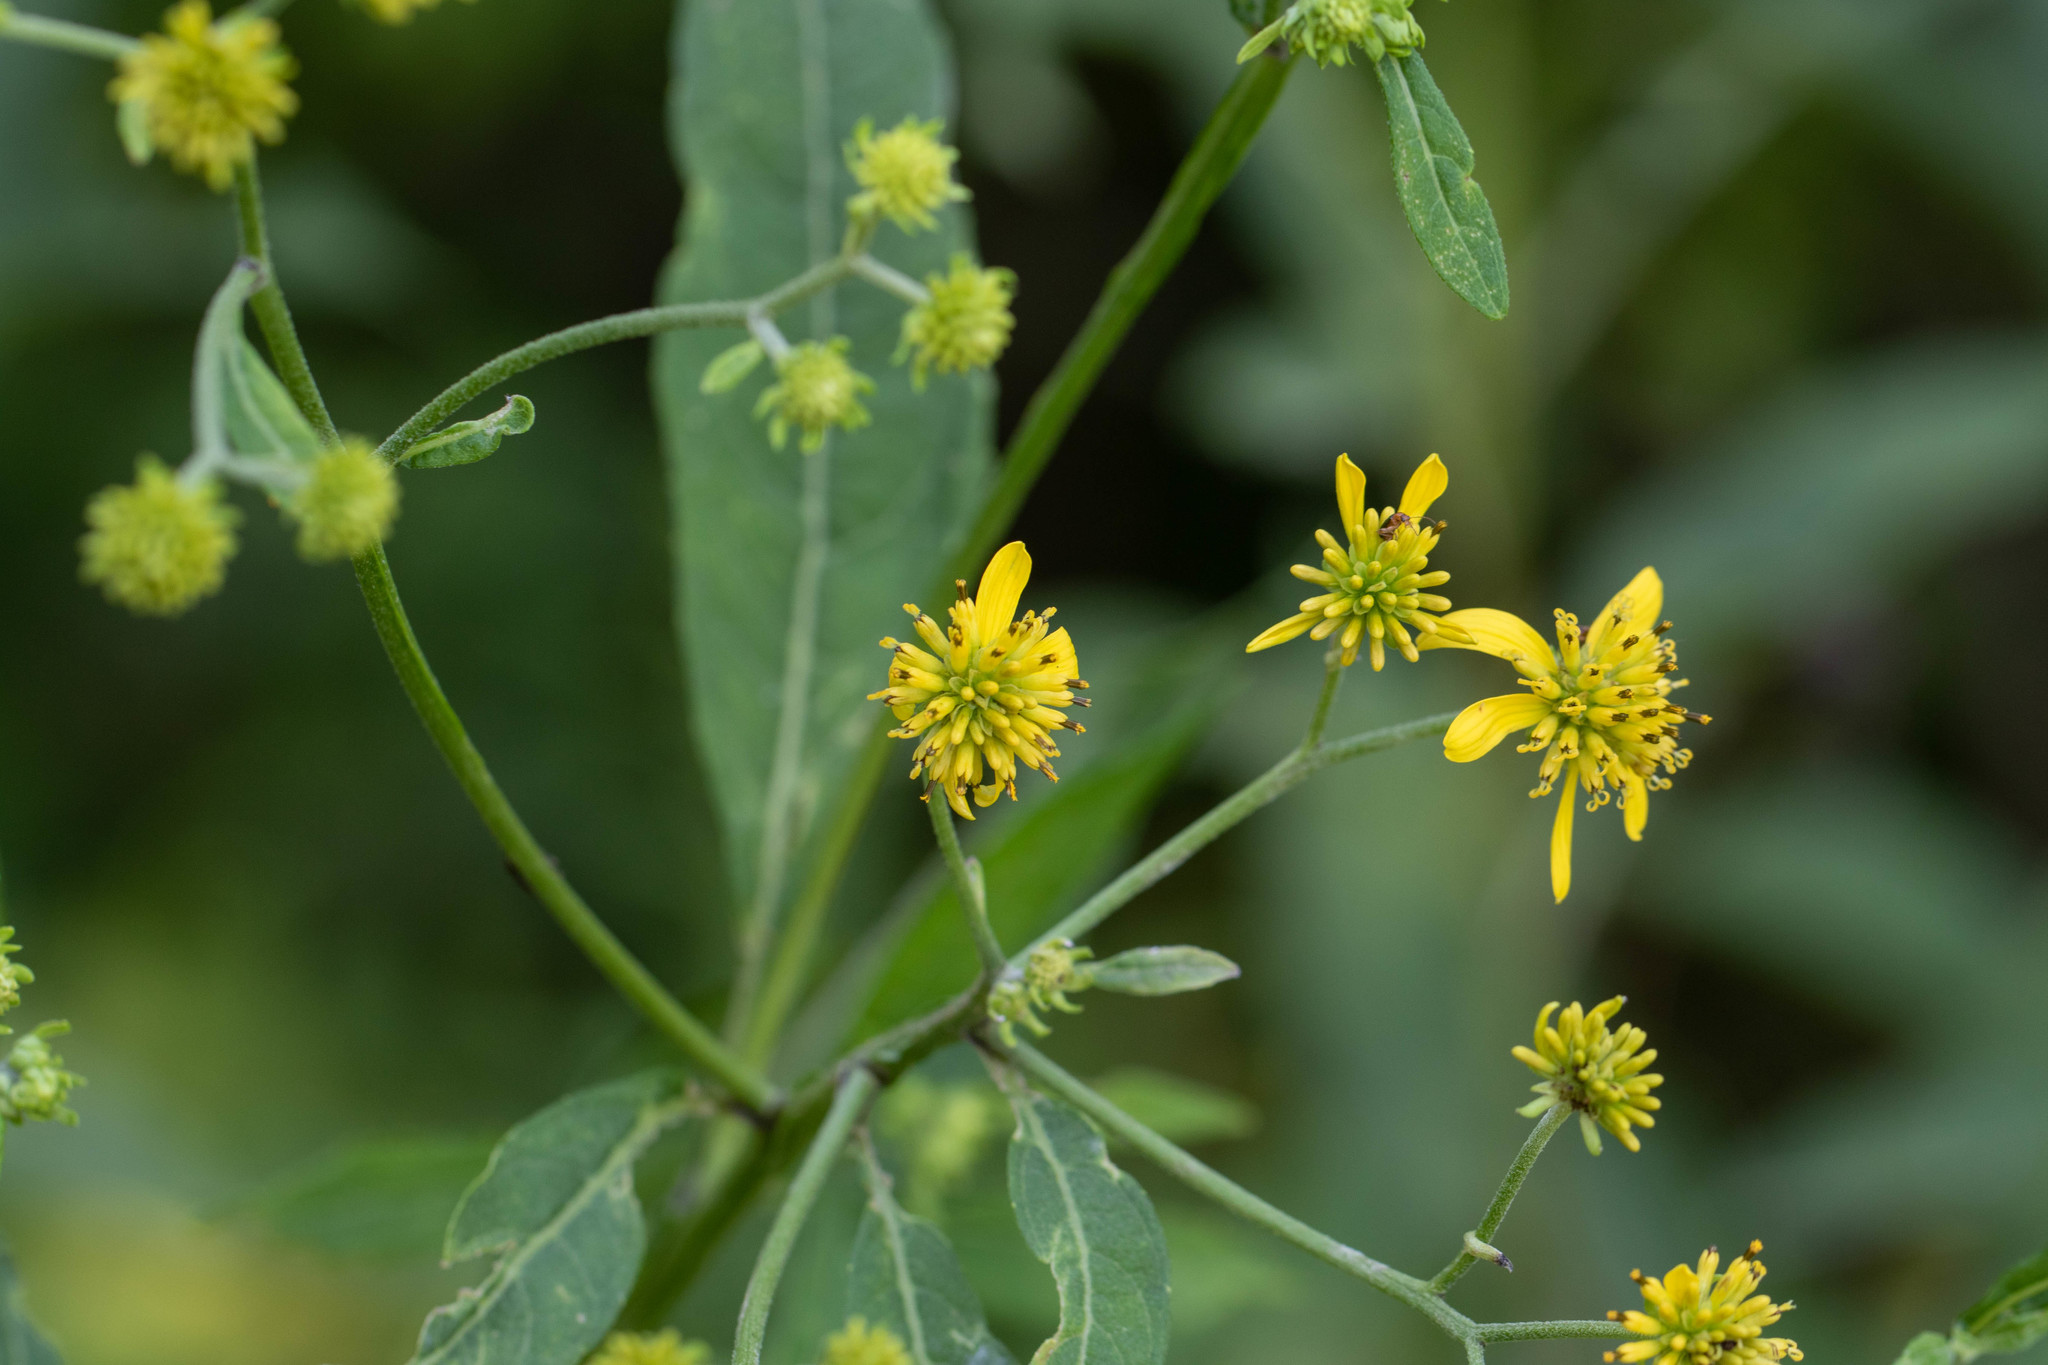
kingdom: Plantae
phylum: Tracheophyta
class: Magnoliopsida
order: Asterales
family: Asteraceae
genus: Verbesina
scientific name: Verbesina alternifolia
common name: Wingstem
